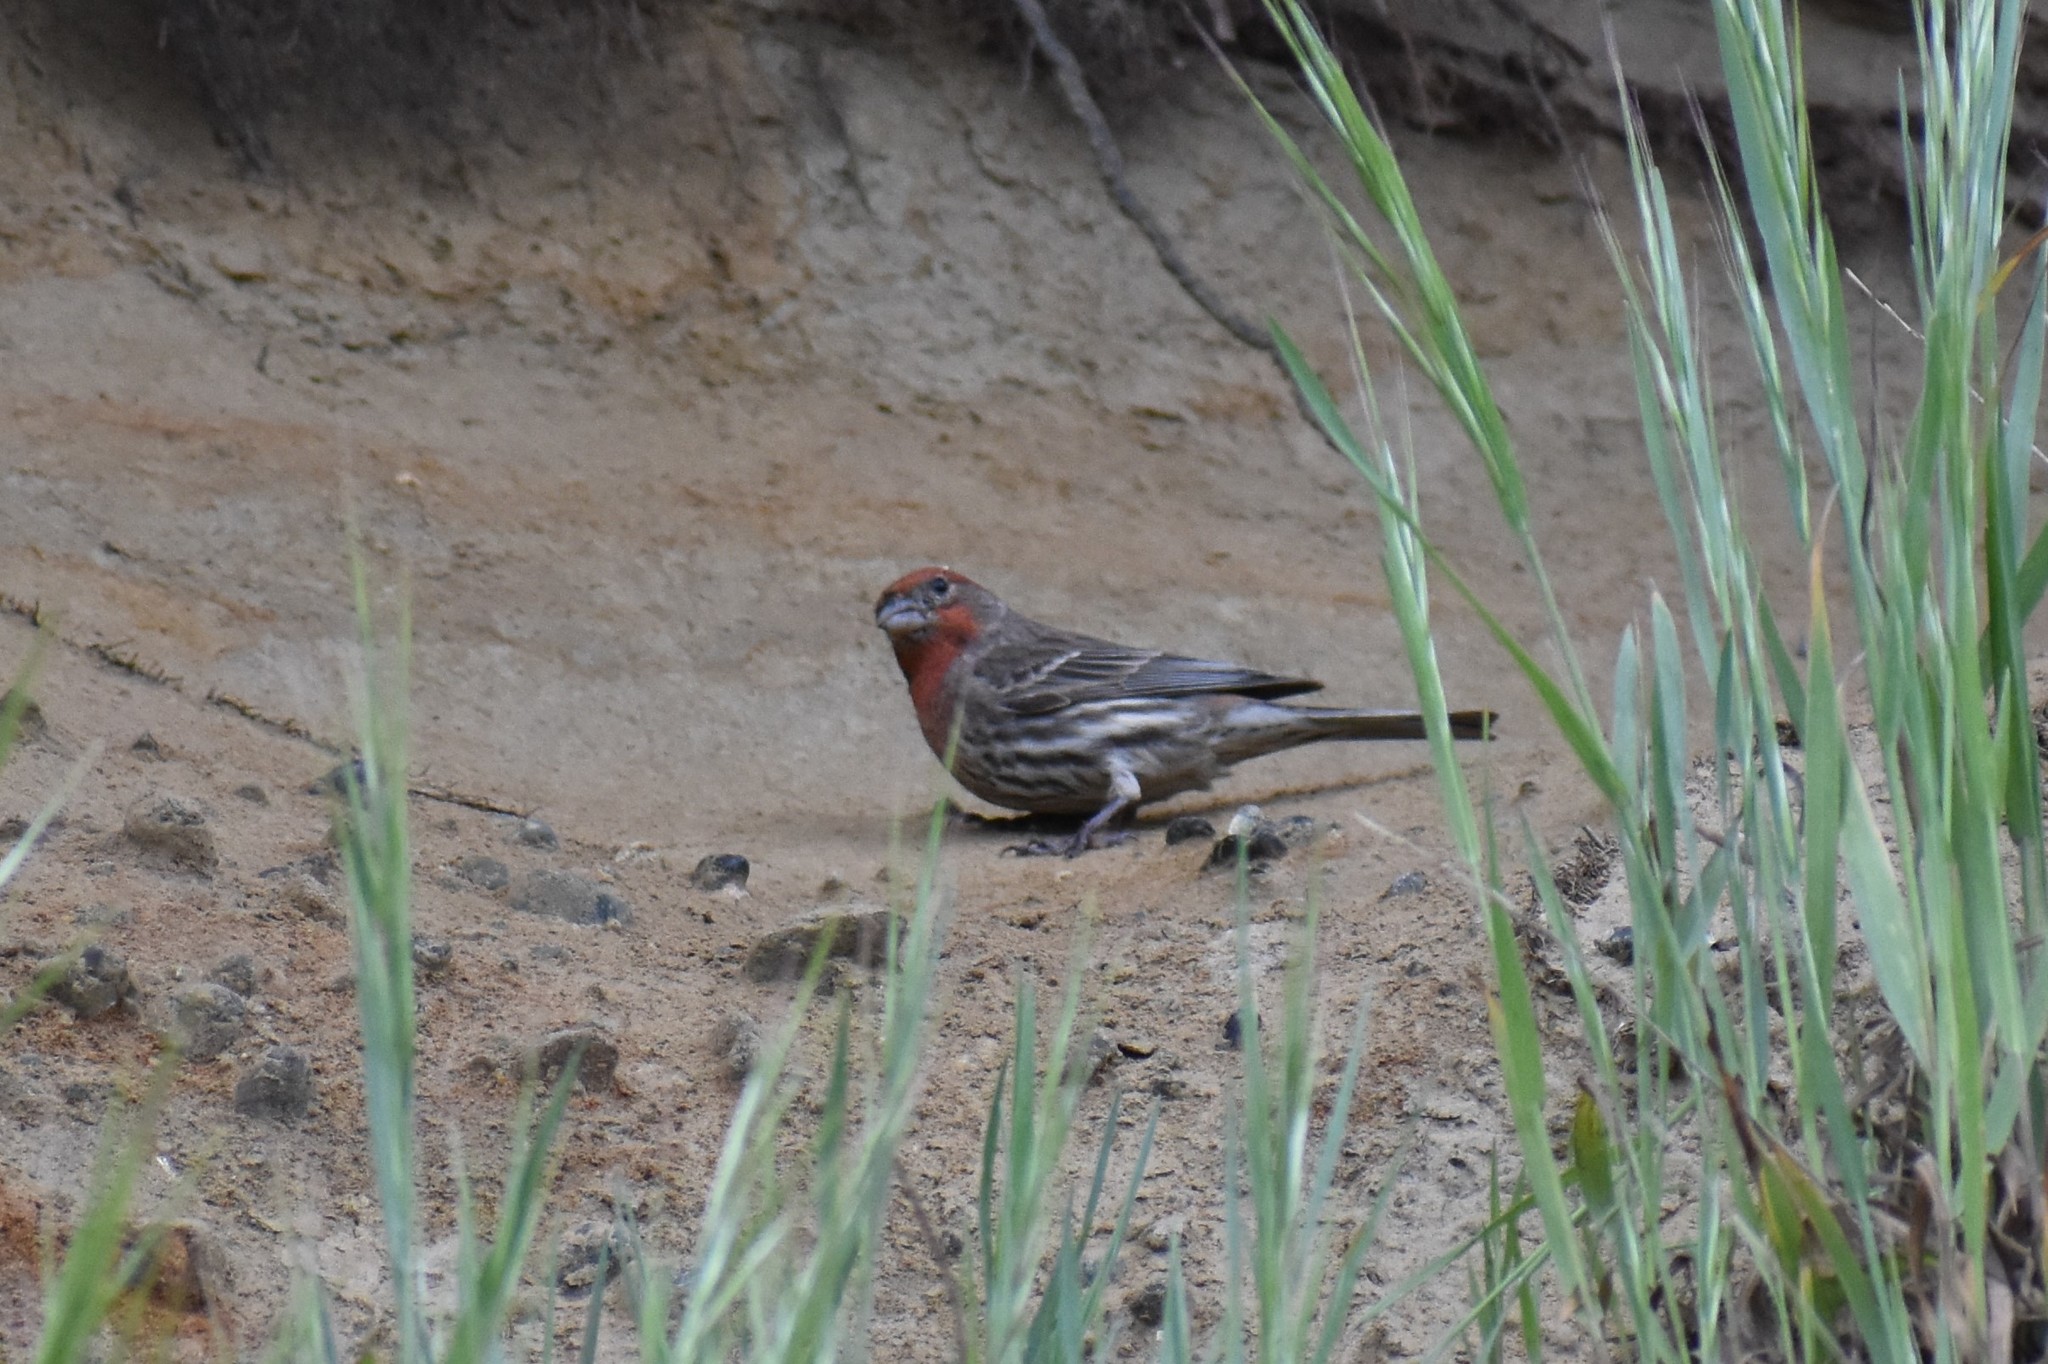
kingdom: Animalia
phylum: Chordata
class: Aves
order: Passeriformes
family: Fringillidae
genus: Haemorhous
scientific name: Haemorhous mexicanus
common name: House finch
